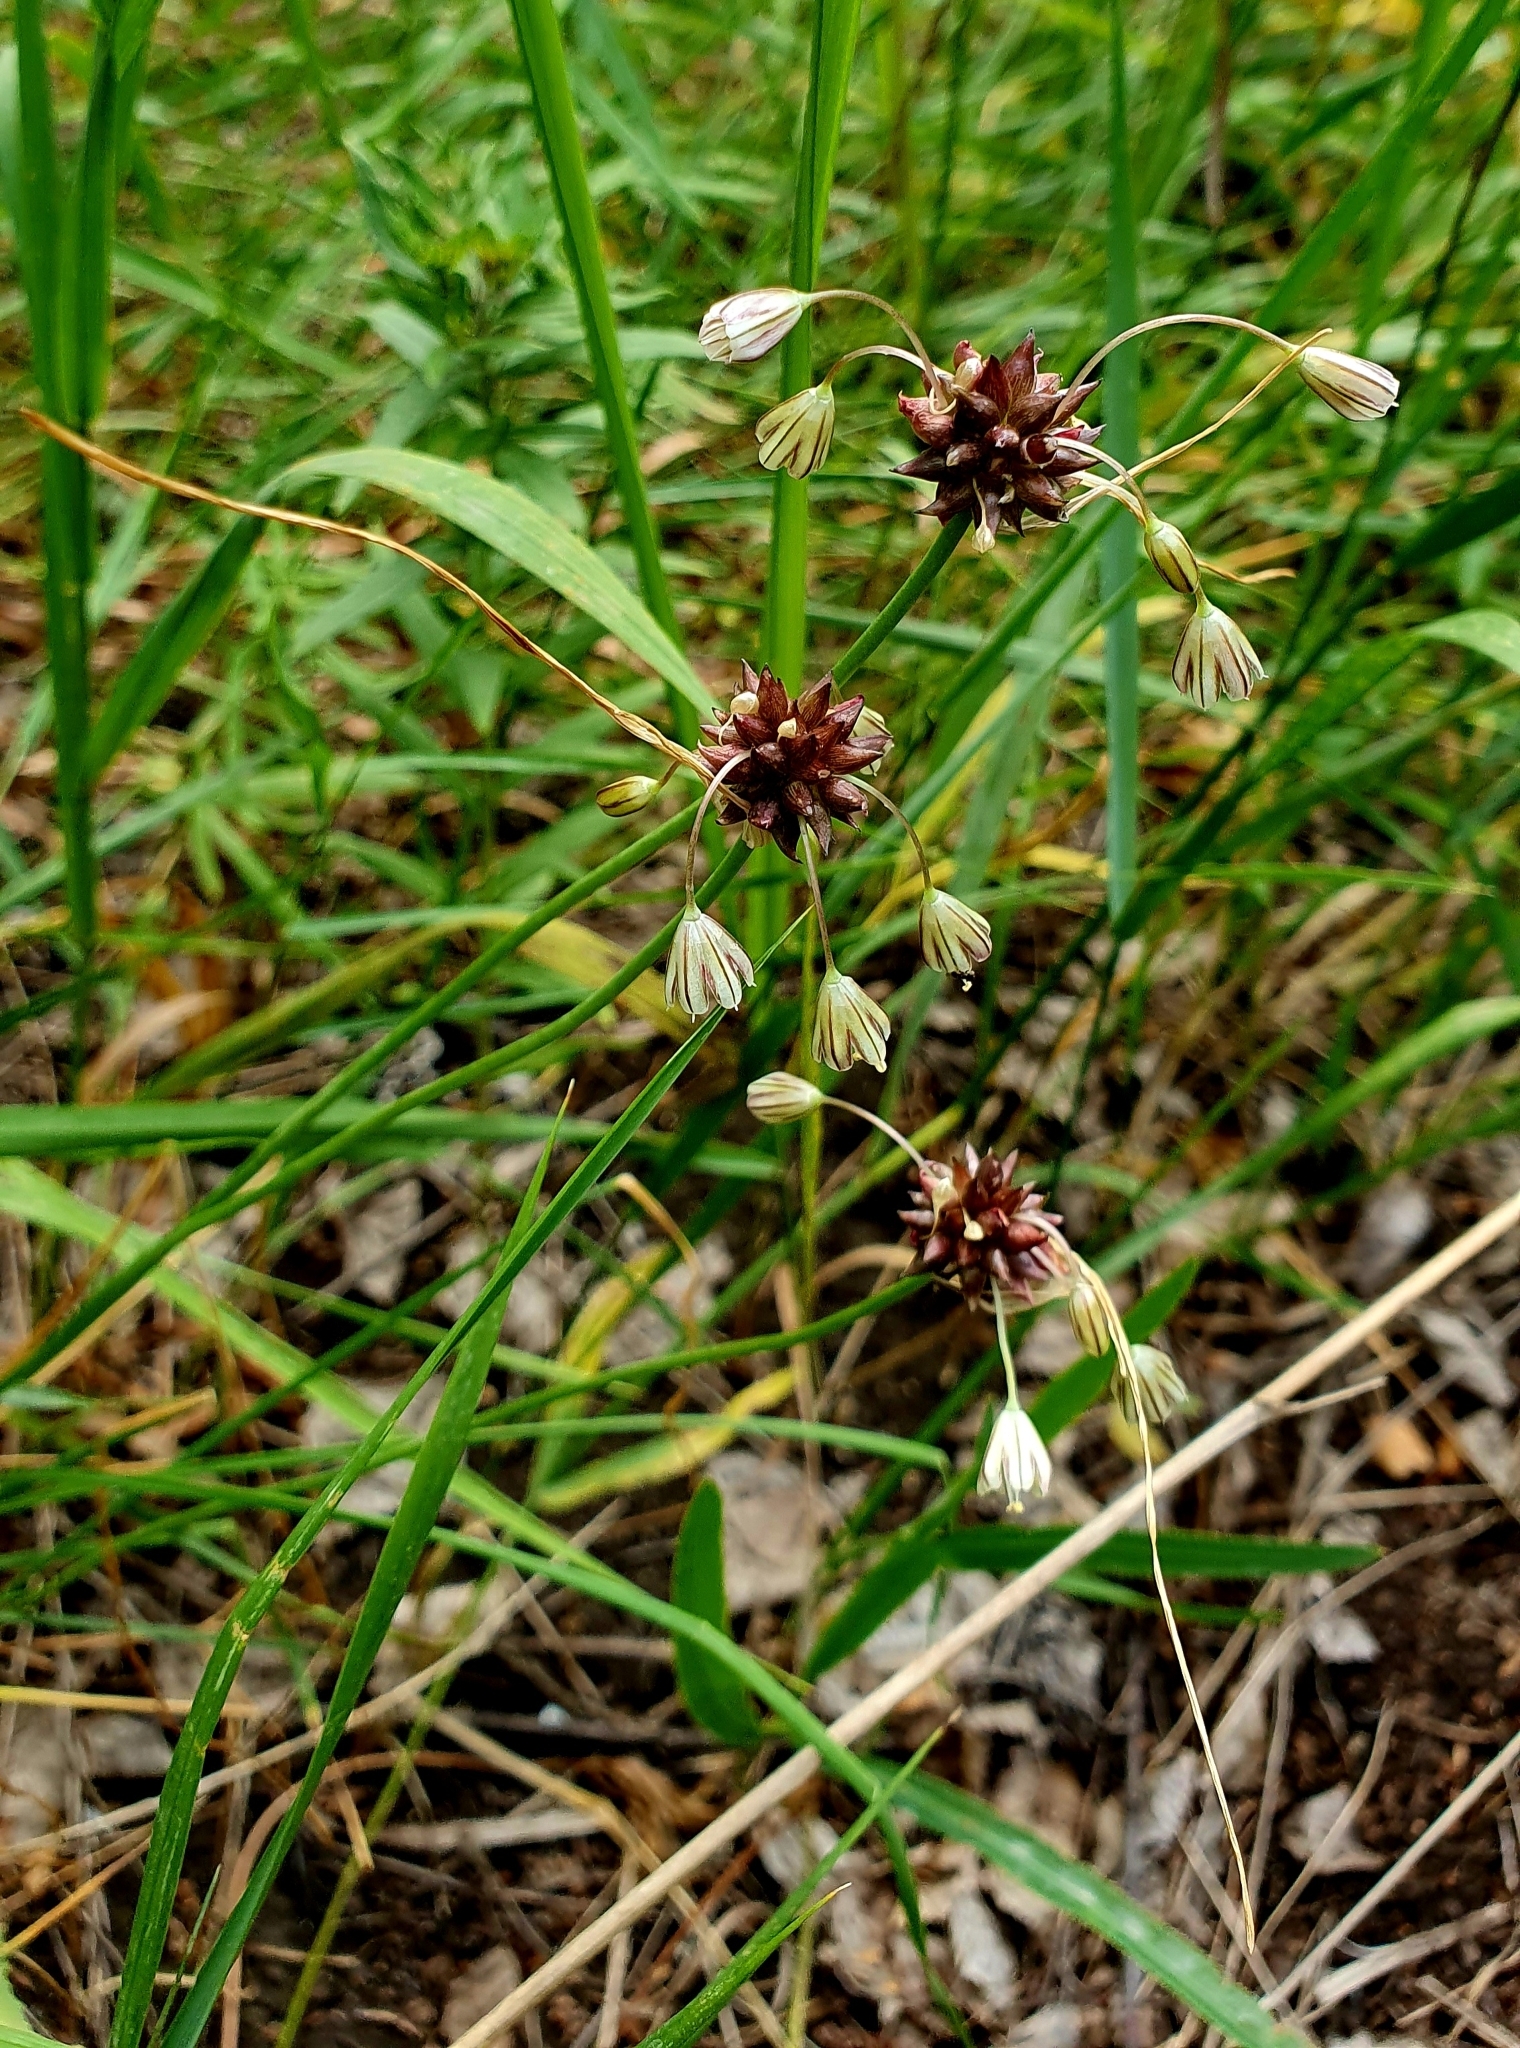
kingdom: Plantae
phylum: Tracheophyta
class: Liliopsida
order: Asparagales
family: Amaryllidaceae
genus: Allium
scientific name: Allium oleraceum
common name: Field garlic
